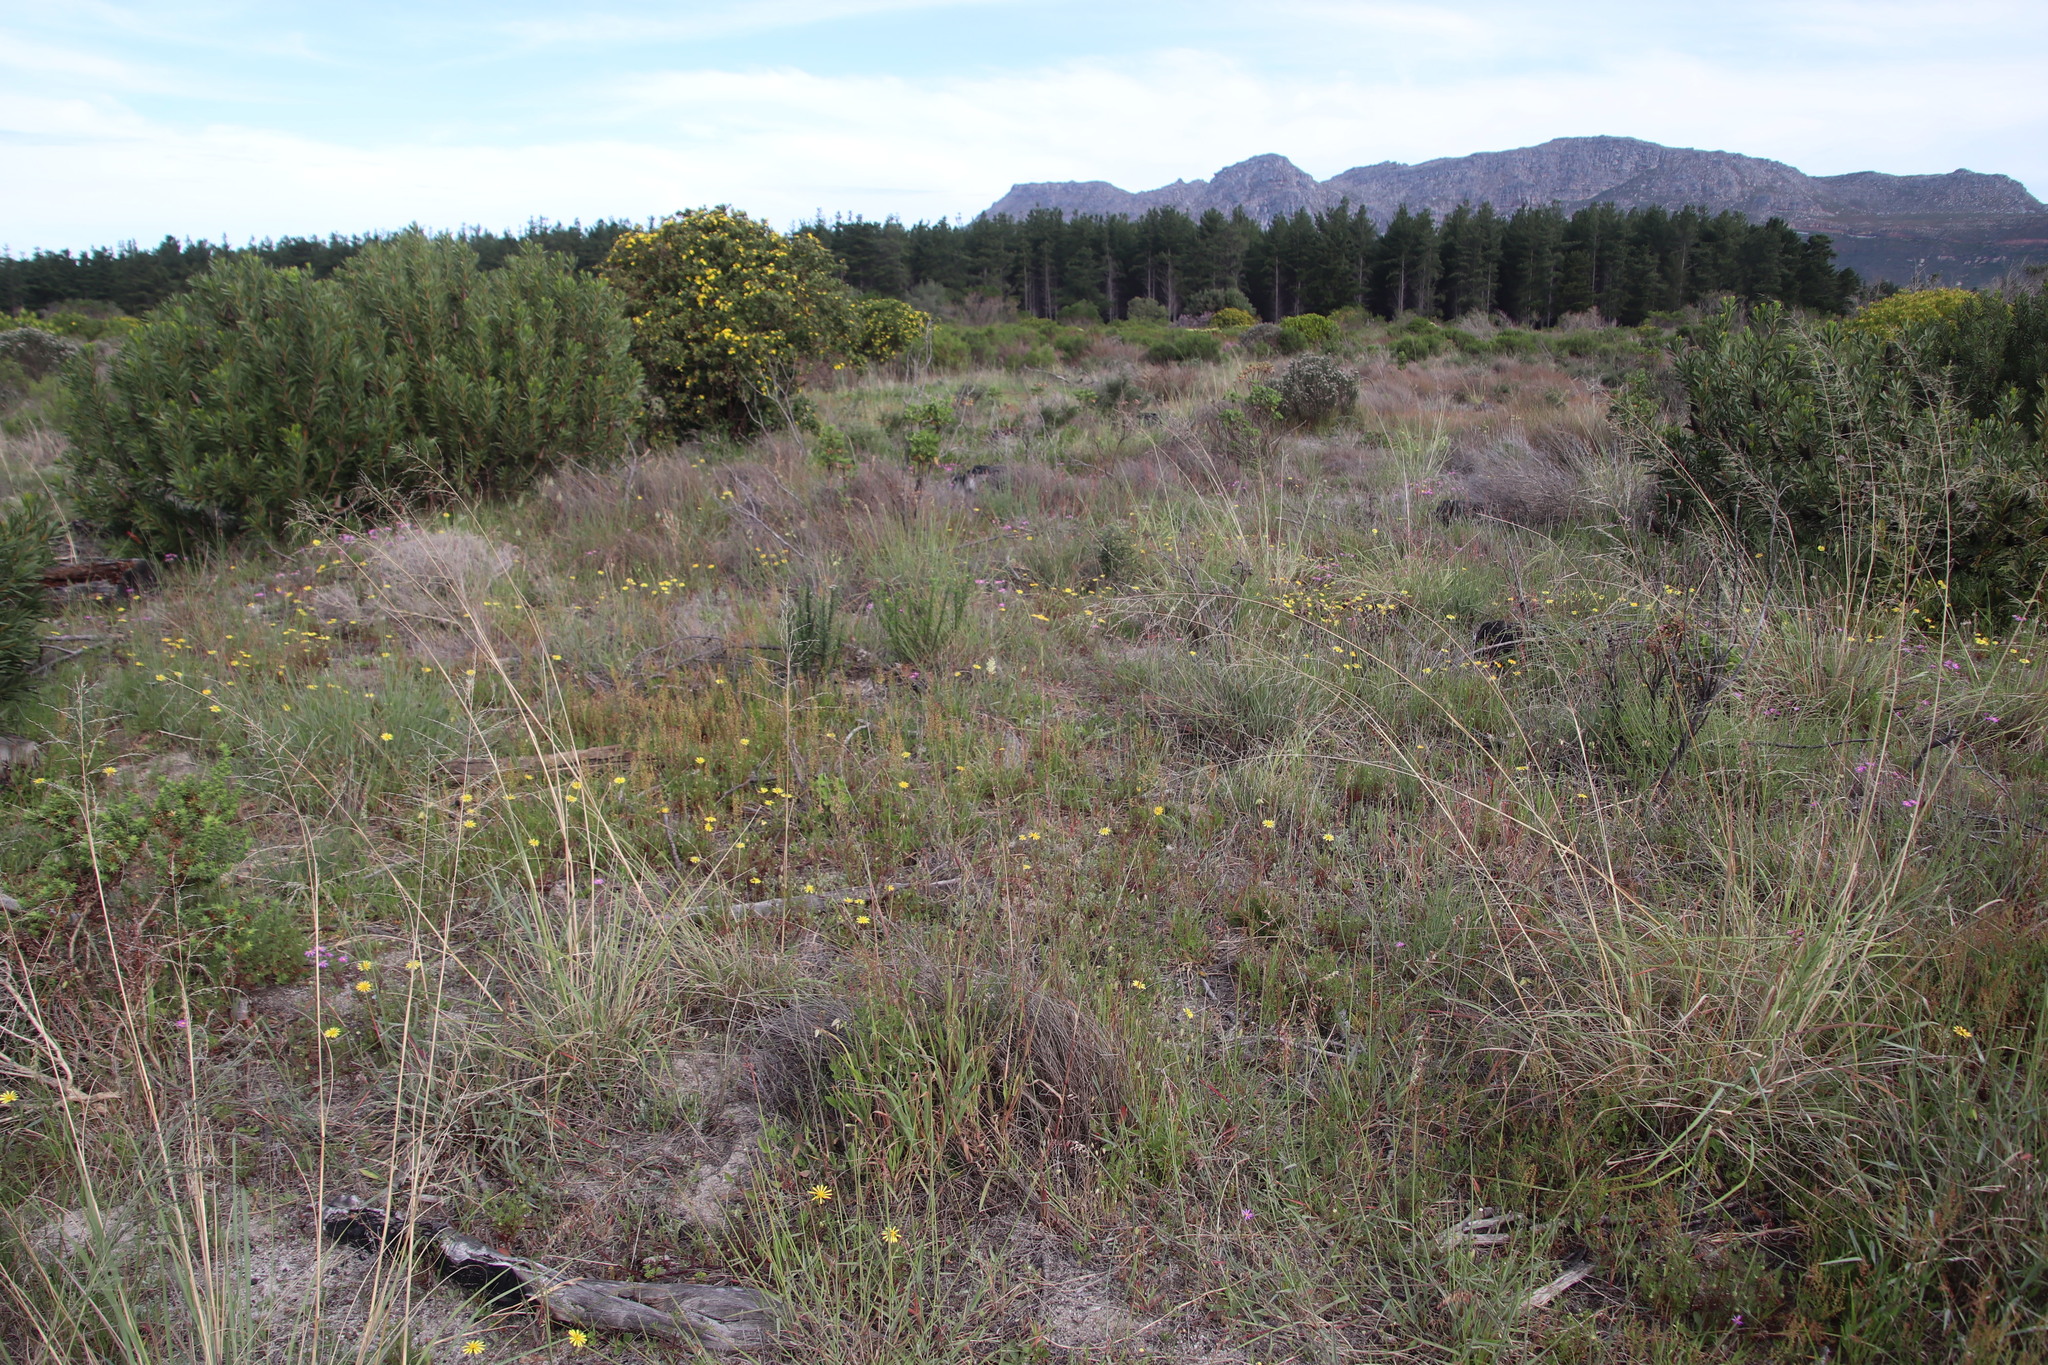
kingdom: Plantae
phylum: Tracheophyta
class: Magnoliopsida
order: Asterales
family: Asteraceae
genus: Ursinia
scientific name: Ursinia anthemoides
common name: Ursinia
